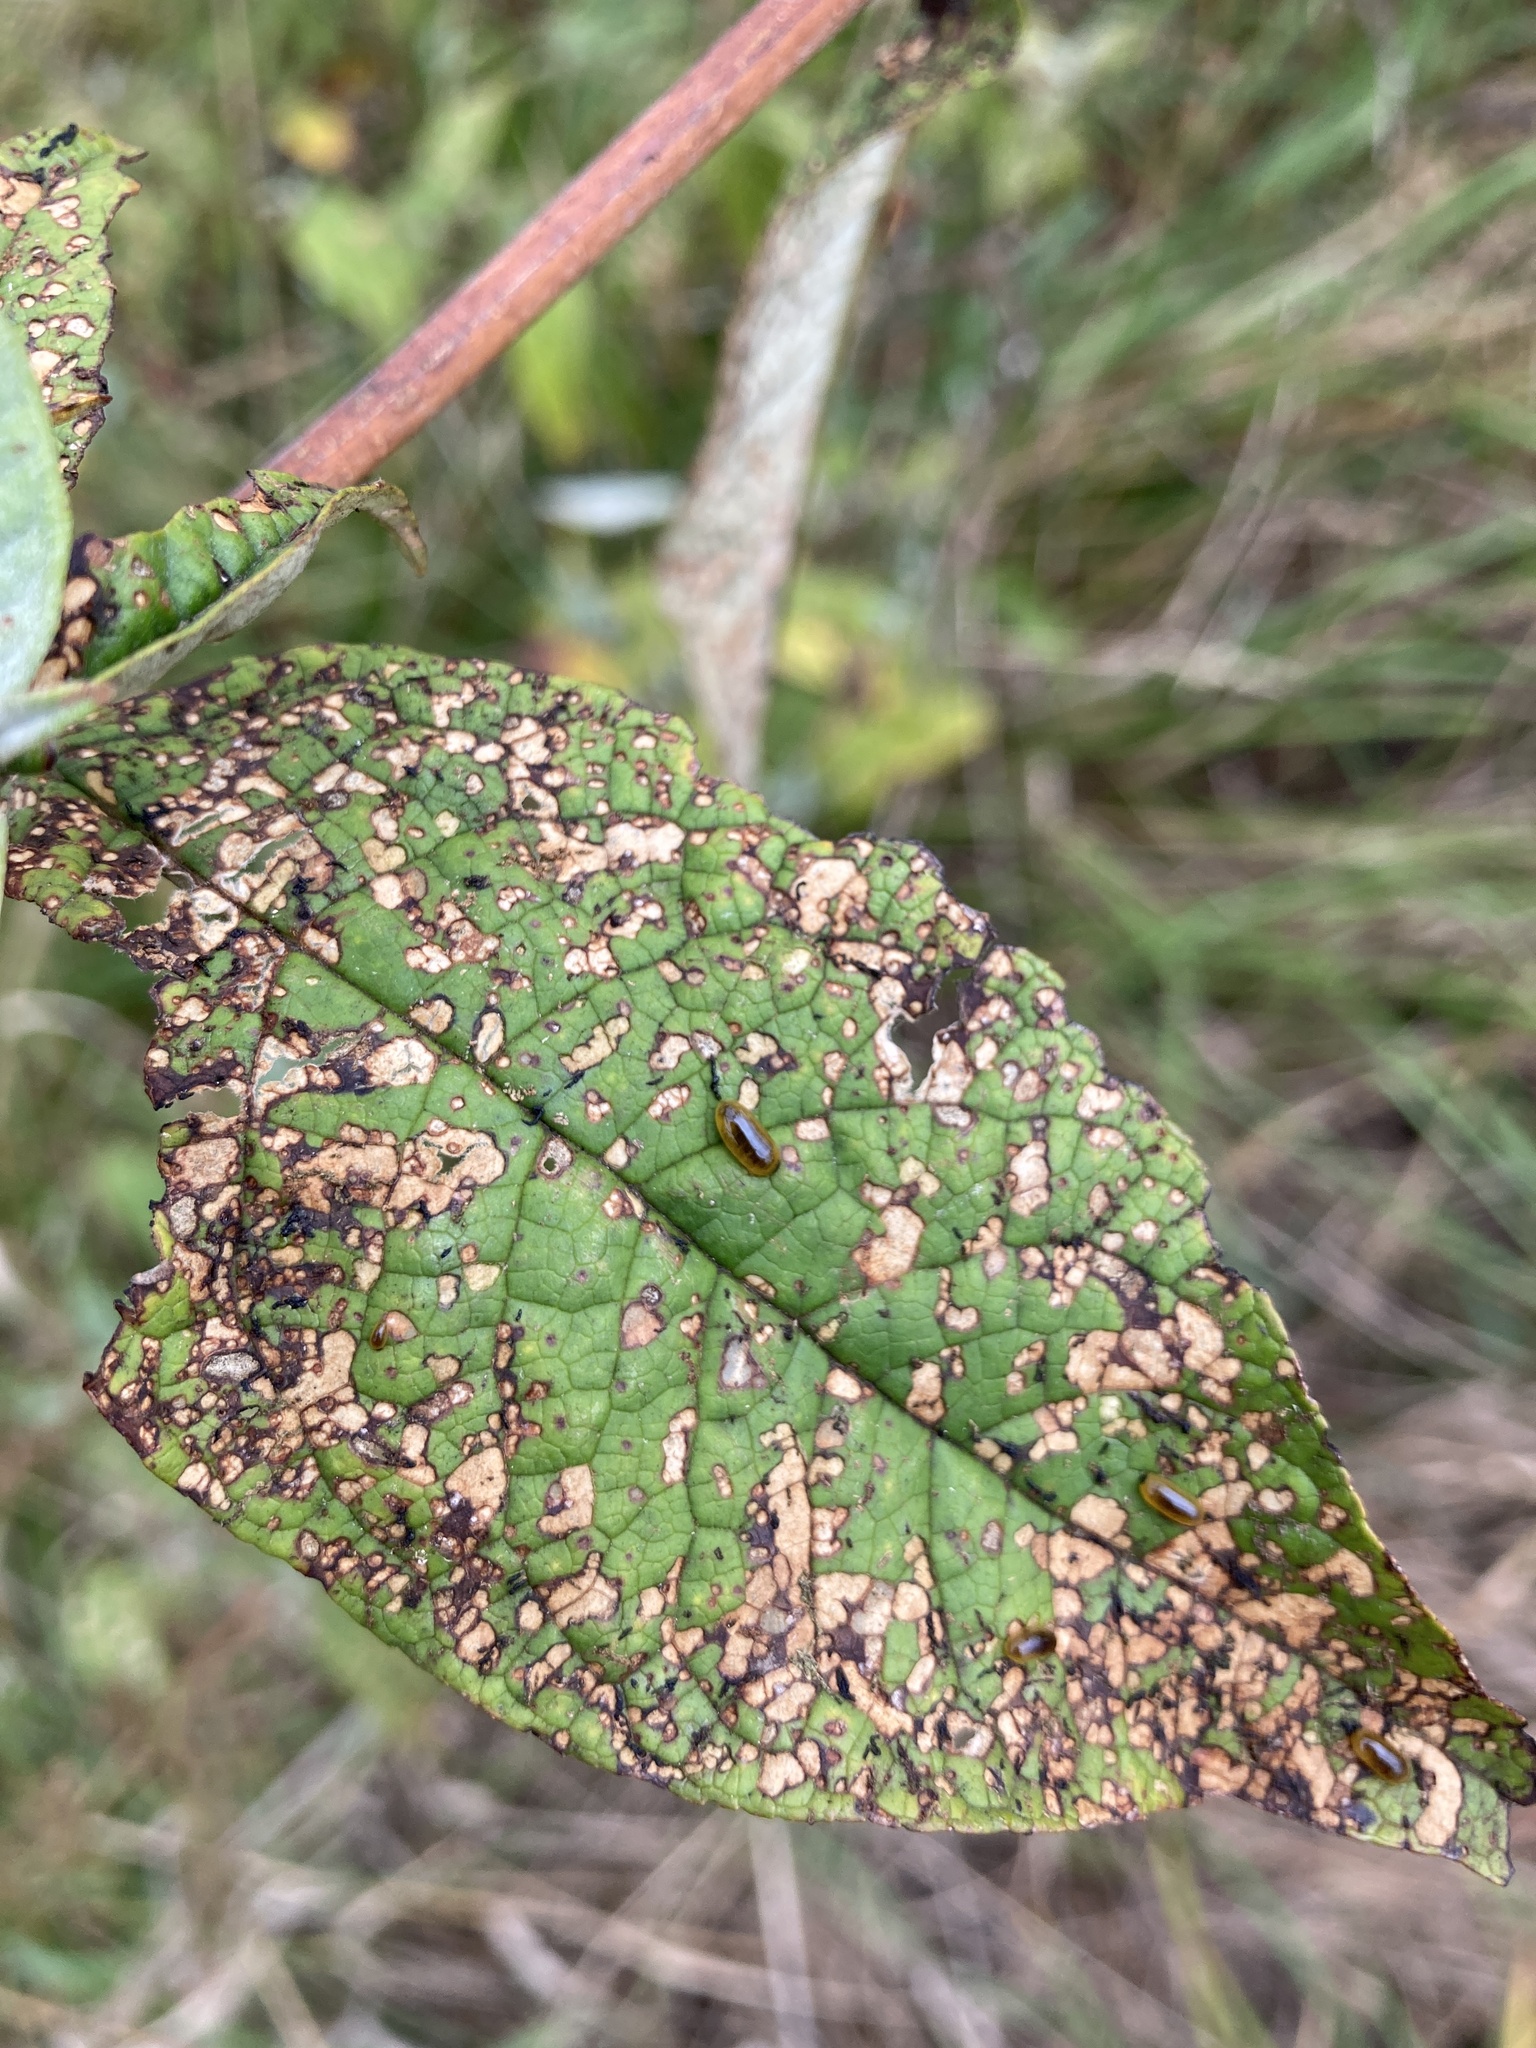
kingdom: Animalia
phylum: Arthropoda
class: Insecta
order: Coleoptera
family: Curculionidae
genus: Cleopus
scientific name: Cleopus japonicus
